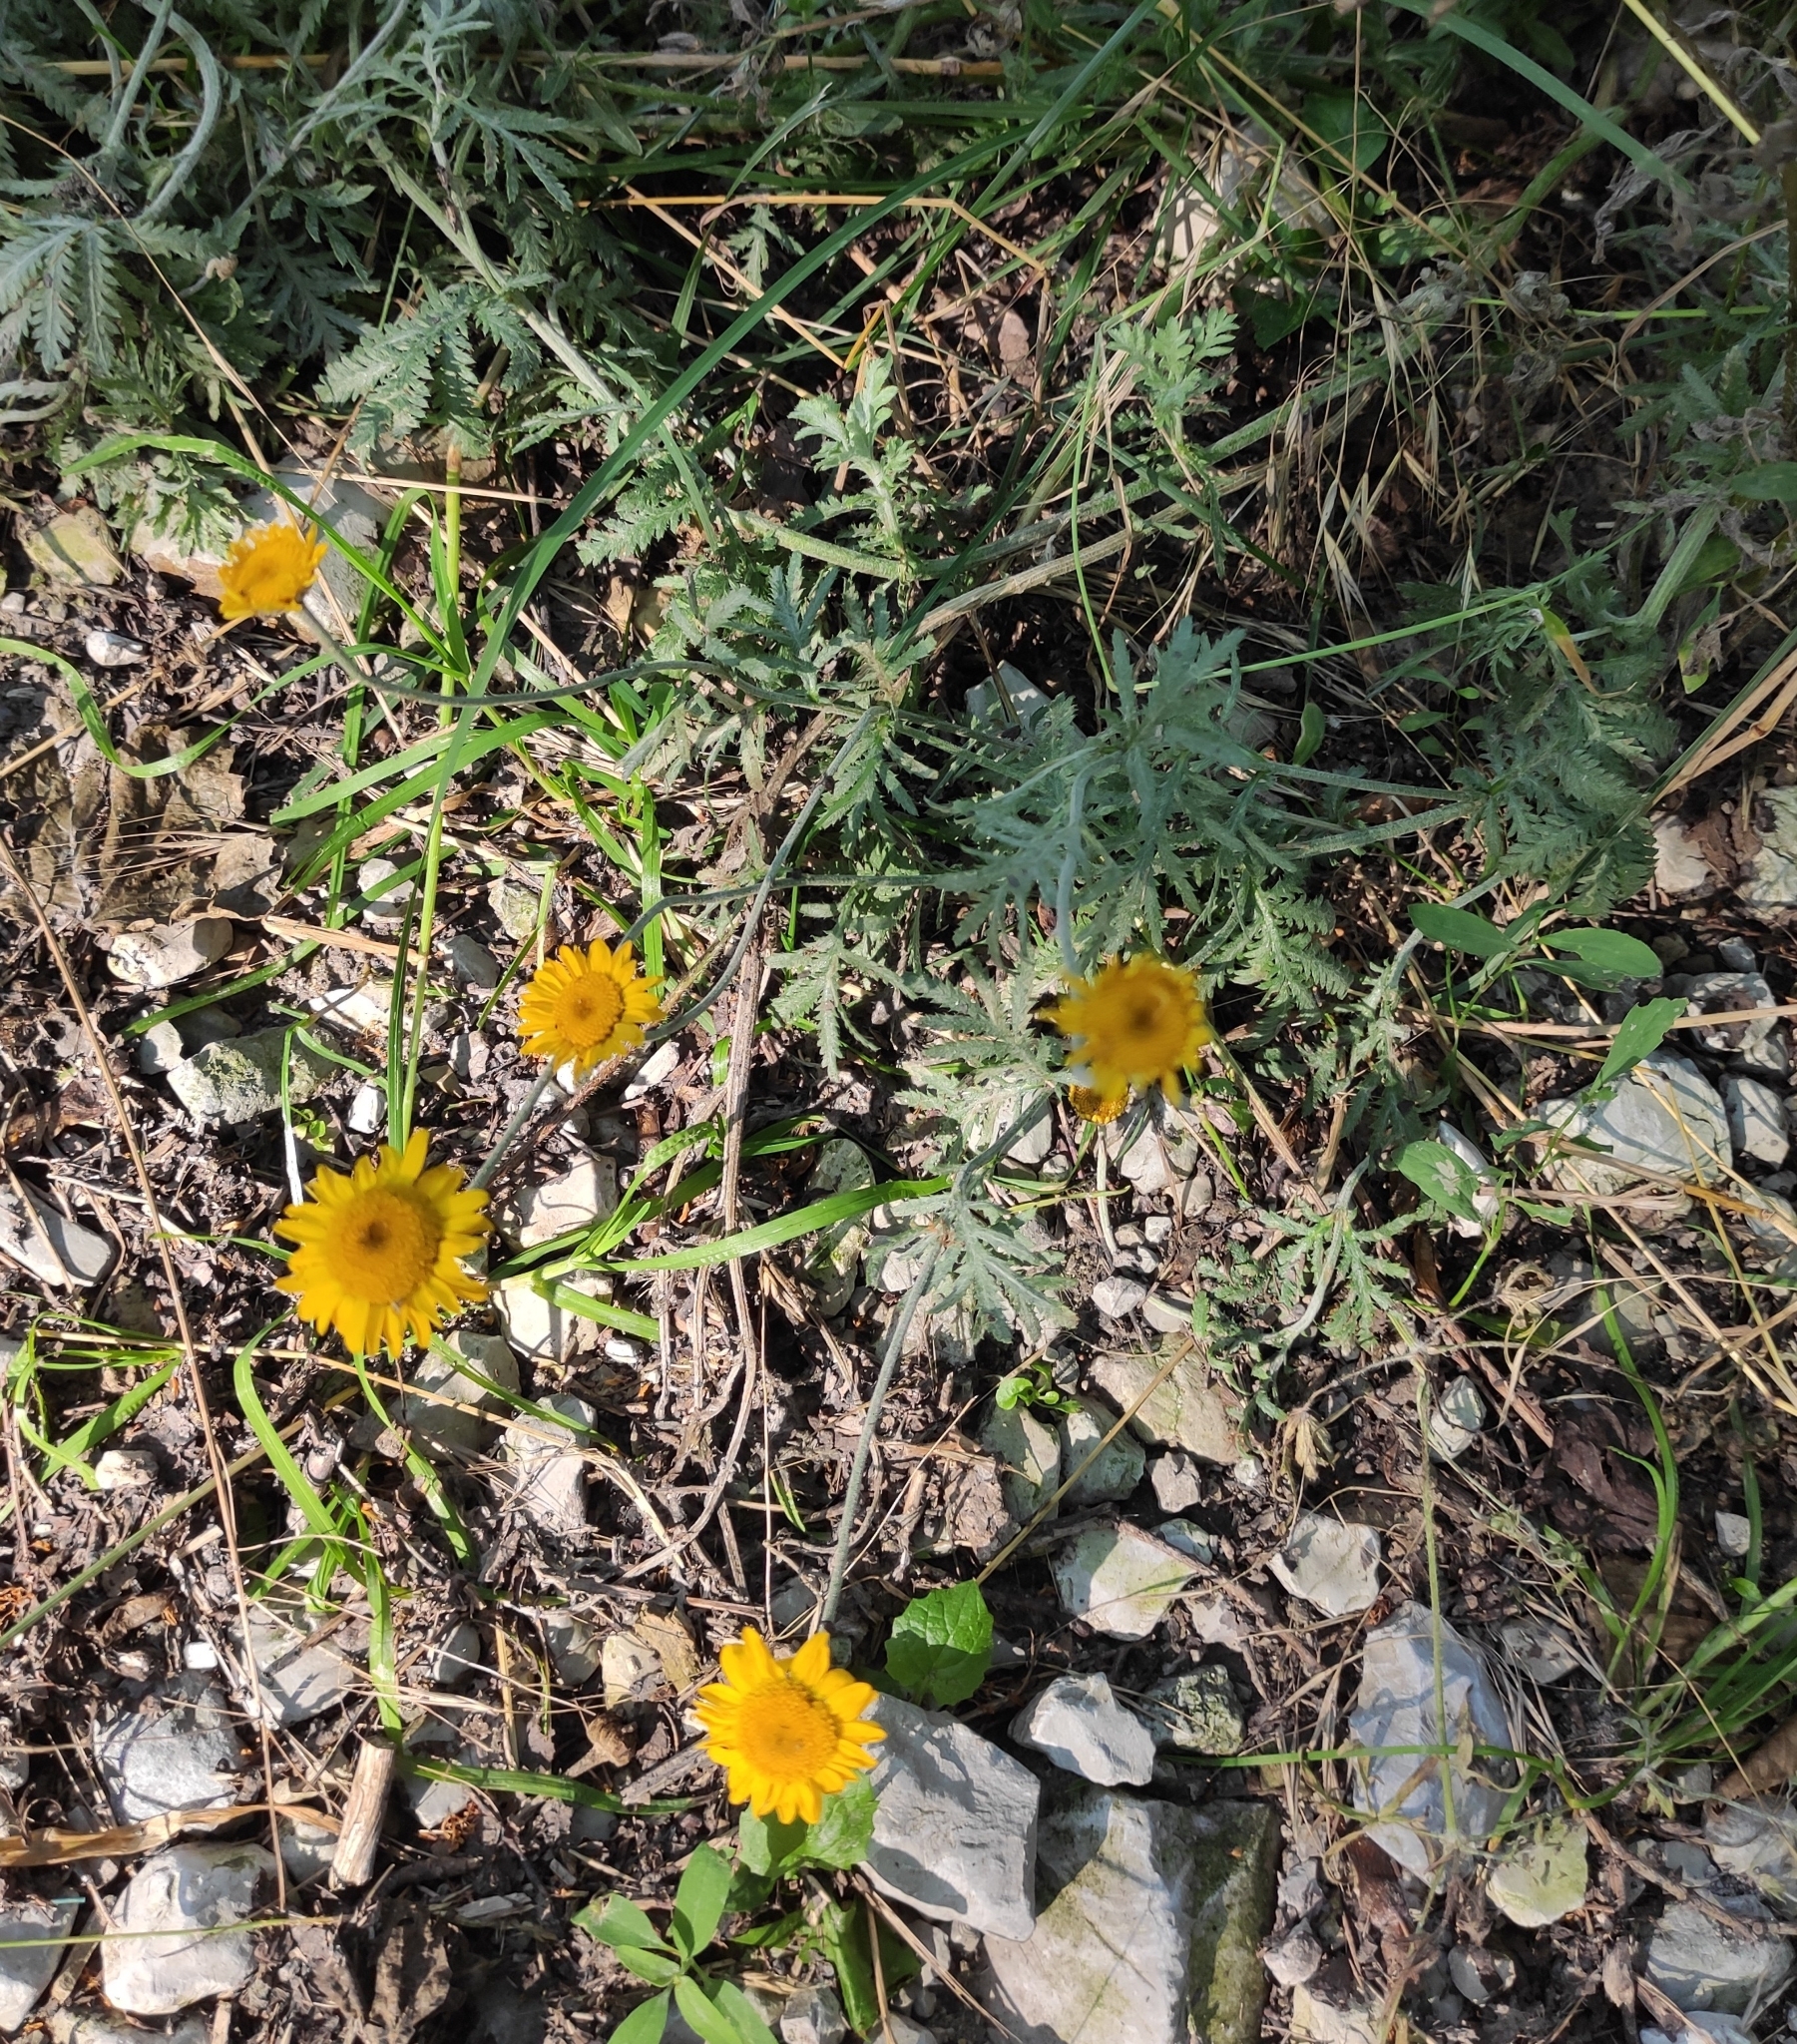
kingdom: Plantae
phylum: Tracheophyta
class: Magnoliopsida
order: Asterales
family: Asteraceae
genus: Cota
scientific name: Cota tinctoria
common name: Golden chamomile
